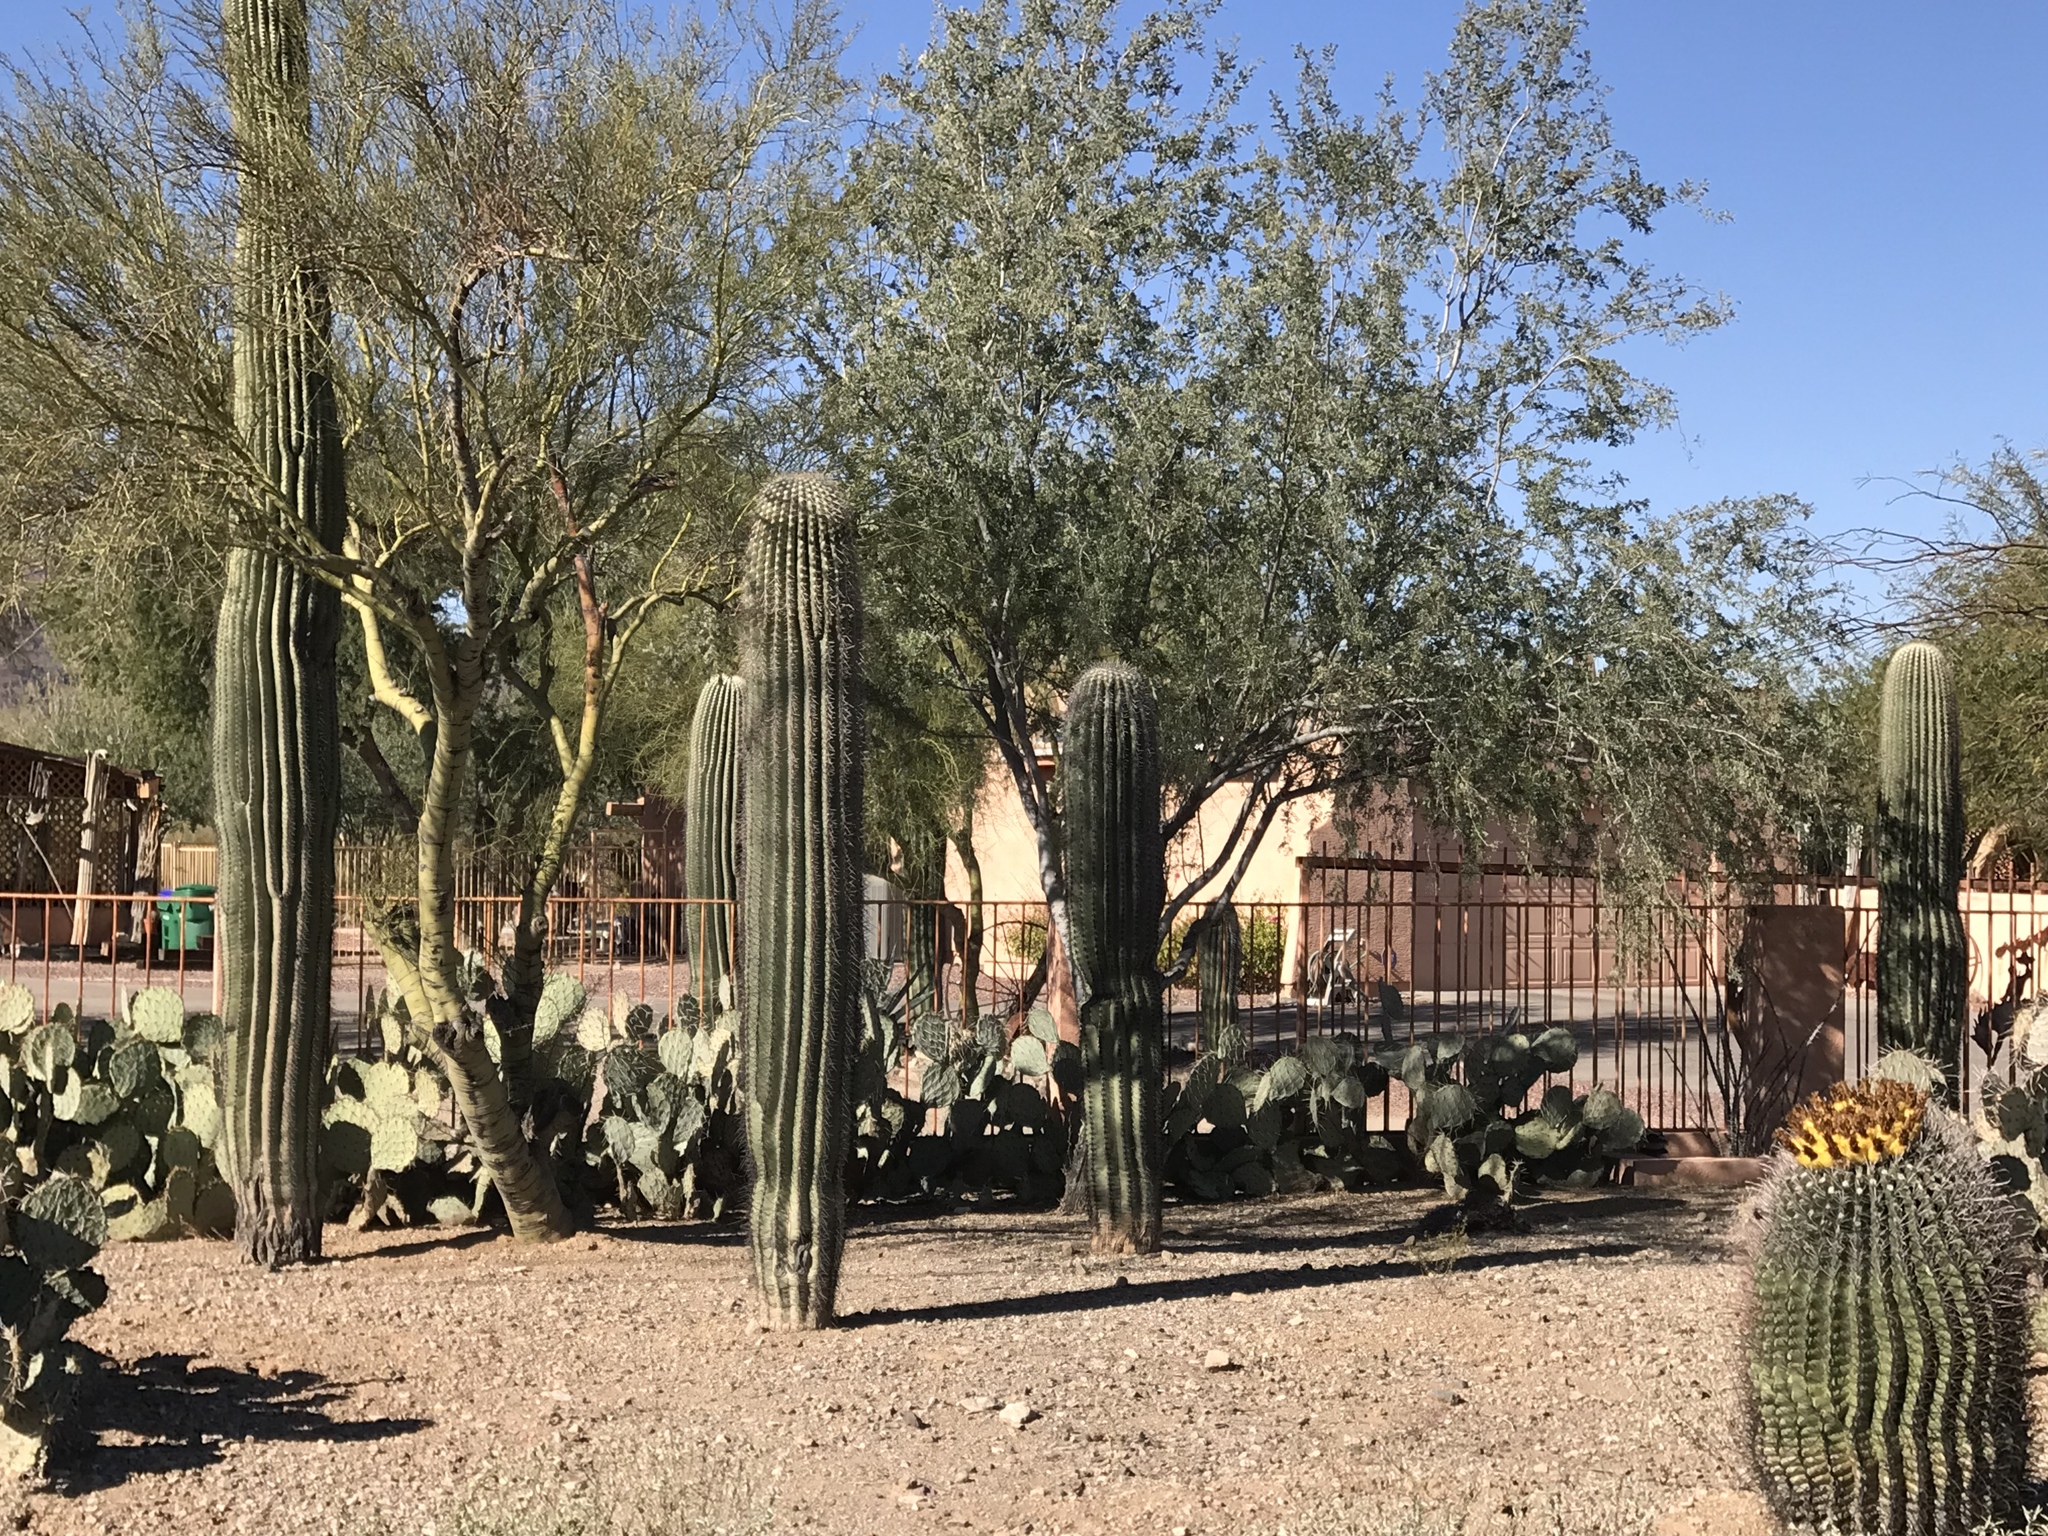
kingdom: Plantae
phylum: Tracheophyta
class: Magnoliopsida
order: Caryophyllales
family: Cactaceae
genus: Carnegiea
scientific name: Carnegiea gigantea
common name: Saguaro
